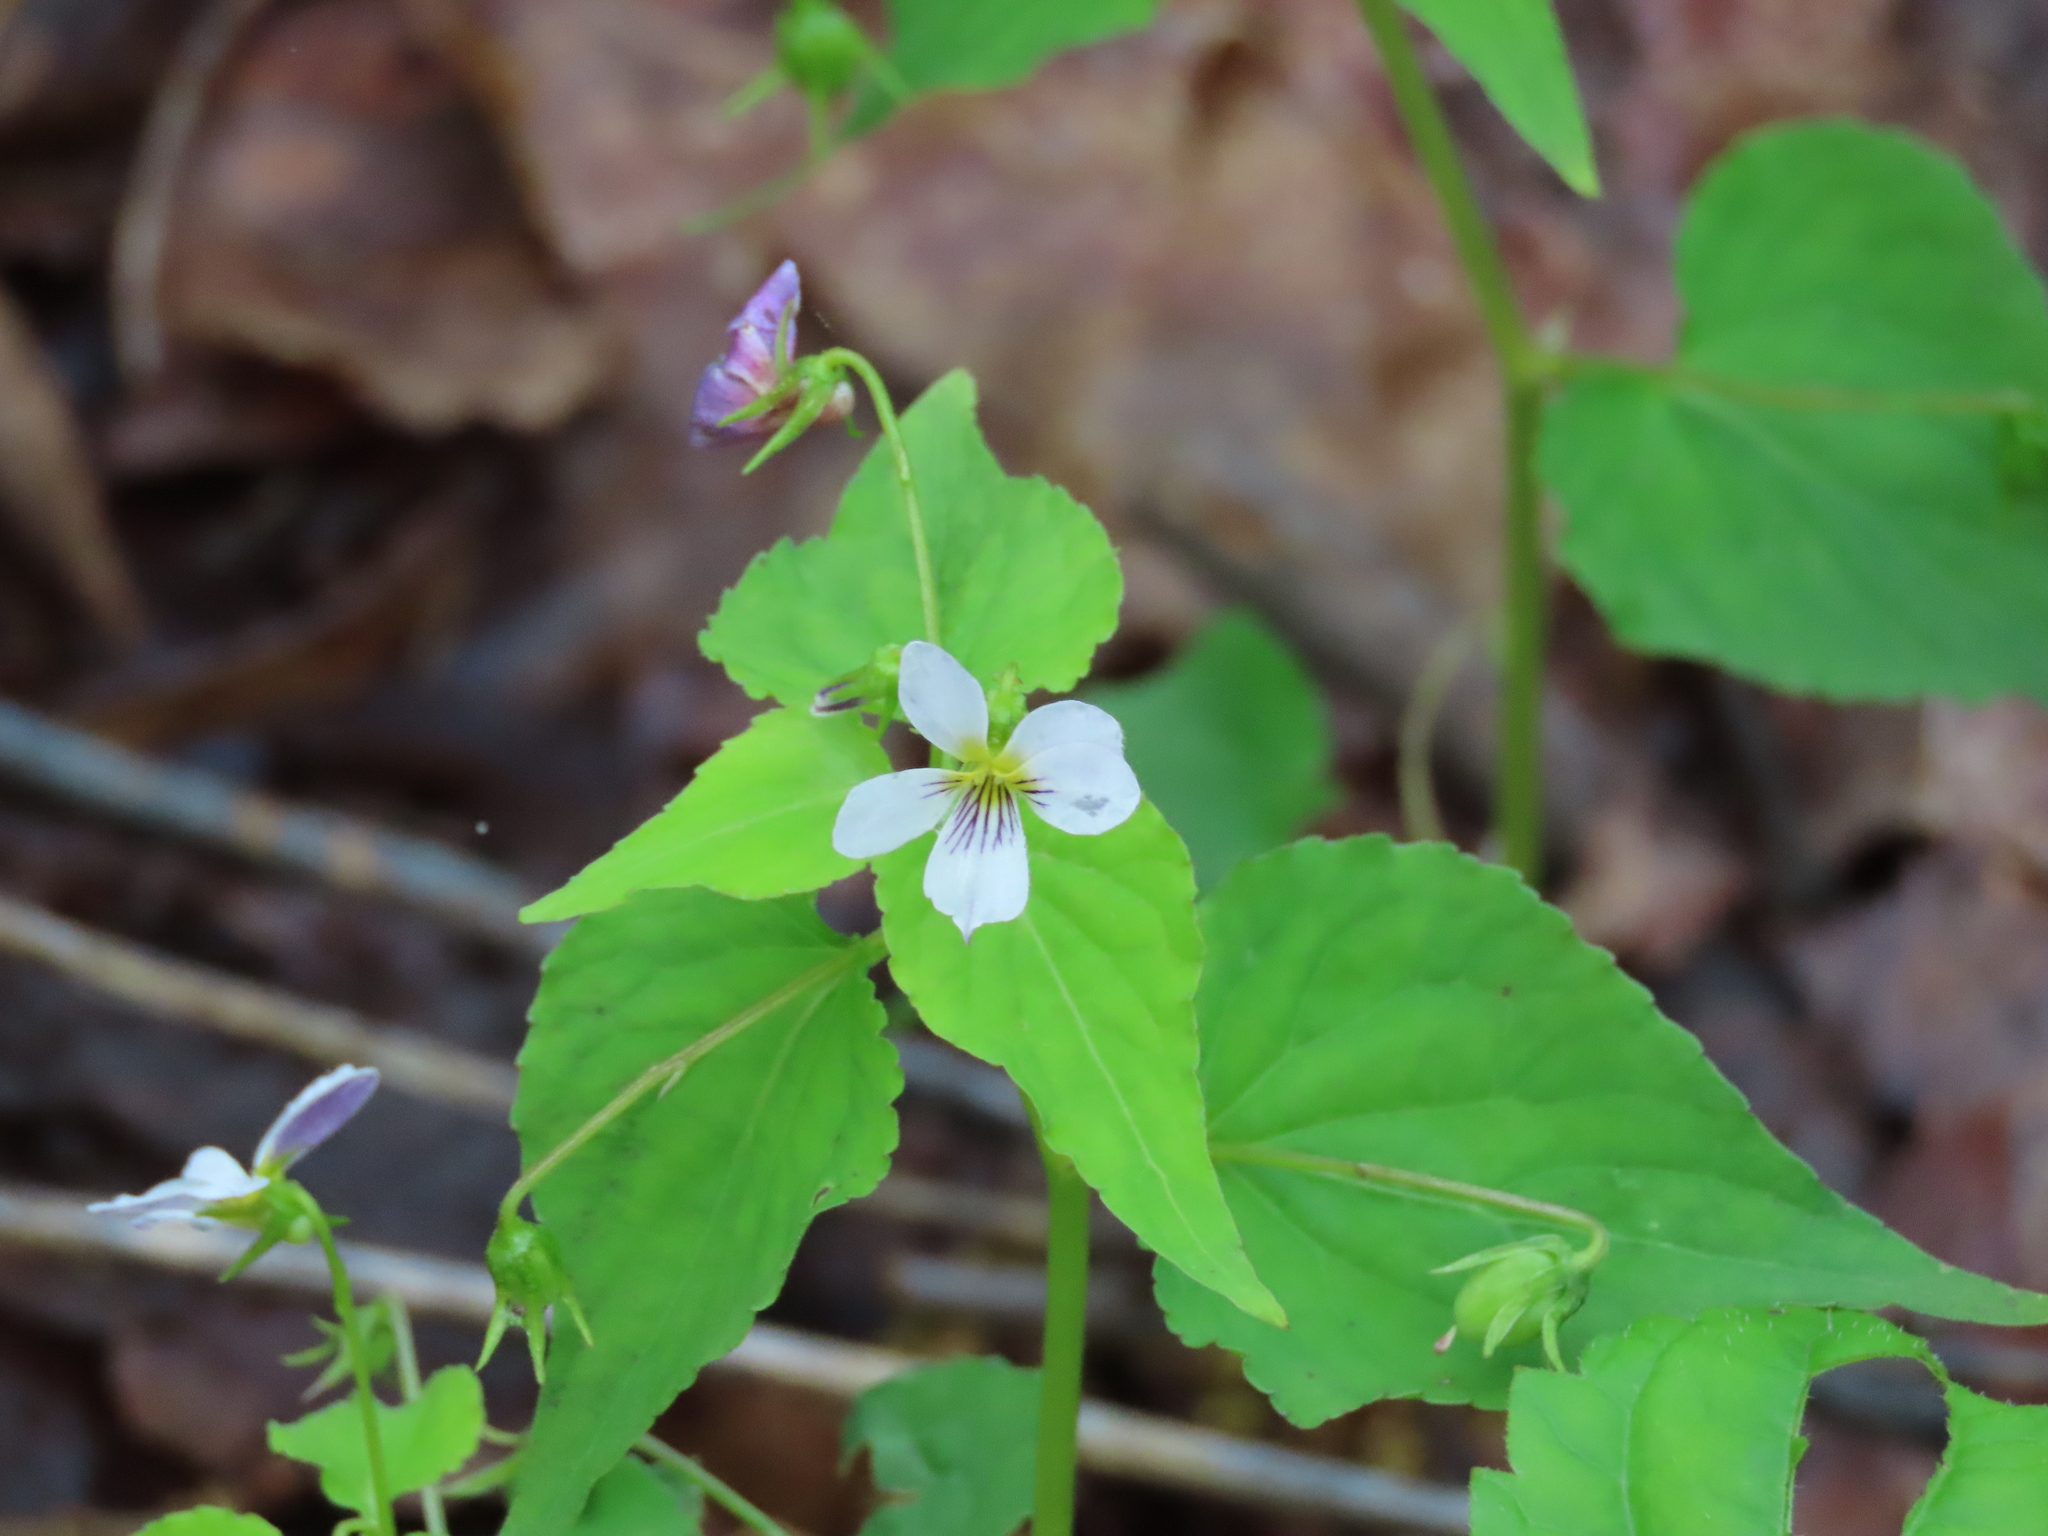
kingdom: Plantae
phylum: Tracheophyta
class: Magnoliopsida
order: Malpighiales
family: Violaceae
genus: Viola
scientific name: Viola canadensis
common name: Canada violet
